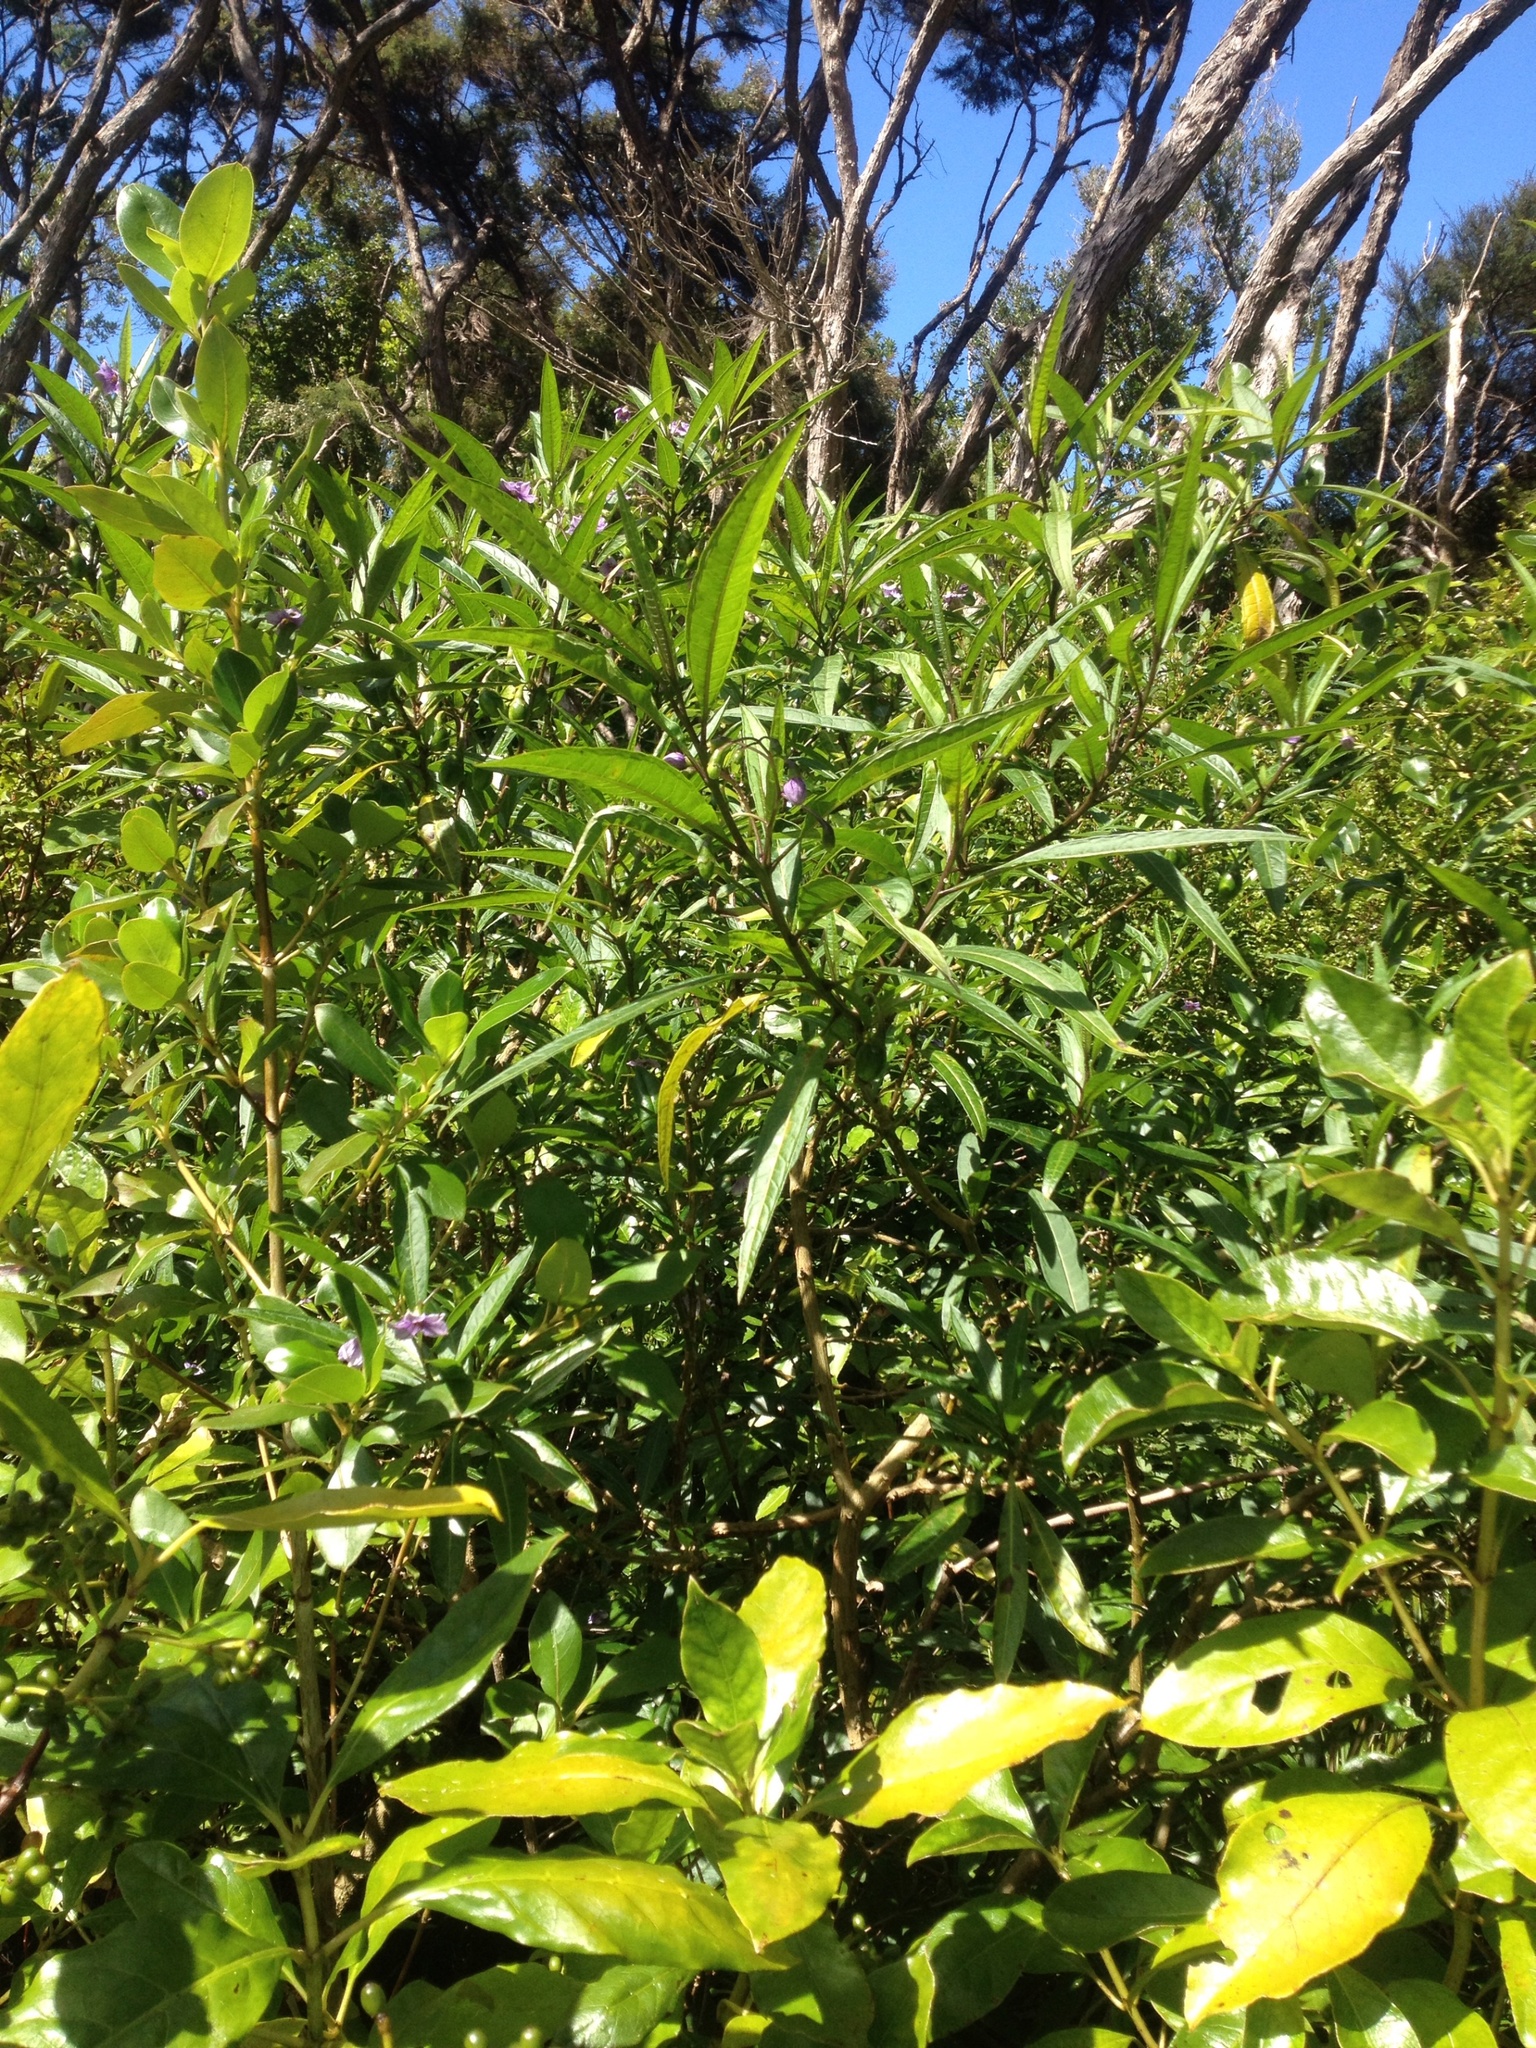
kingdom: Plantae
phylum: Tracheophyta
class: Magnoliopsida
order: Solanales
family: Solanaceae
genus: Solanum
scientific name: Solanum aviculare
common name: New zealand nightshade
